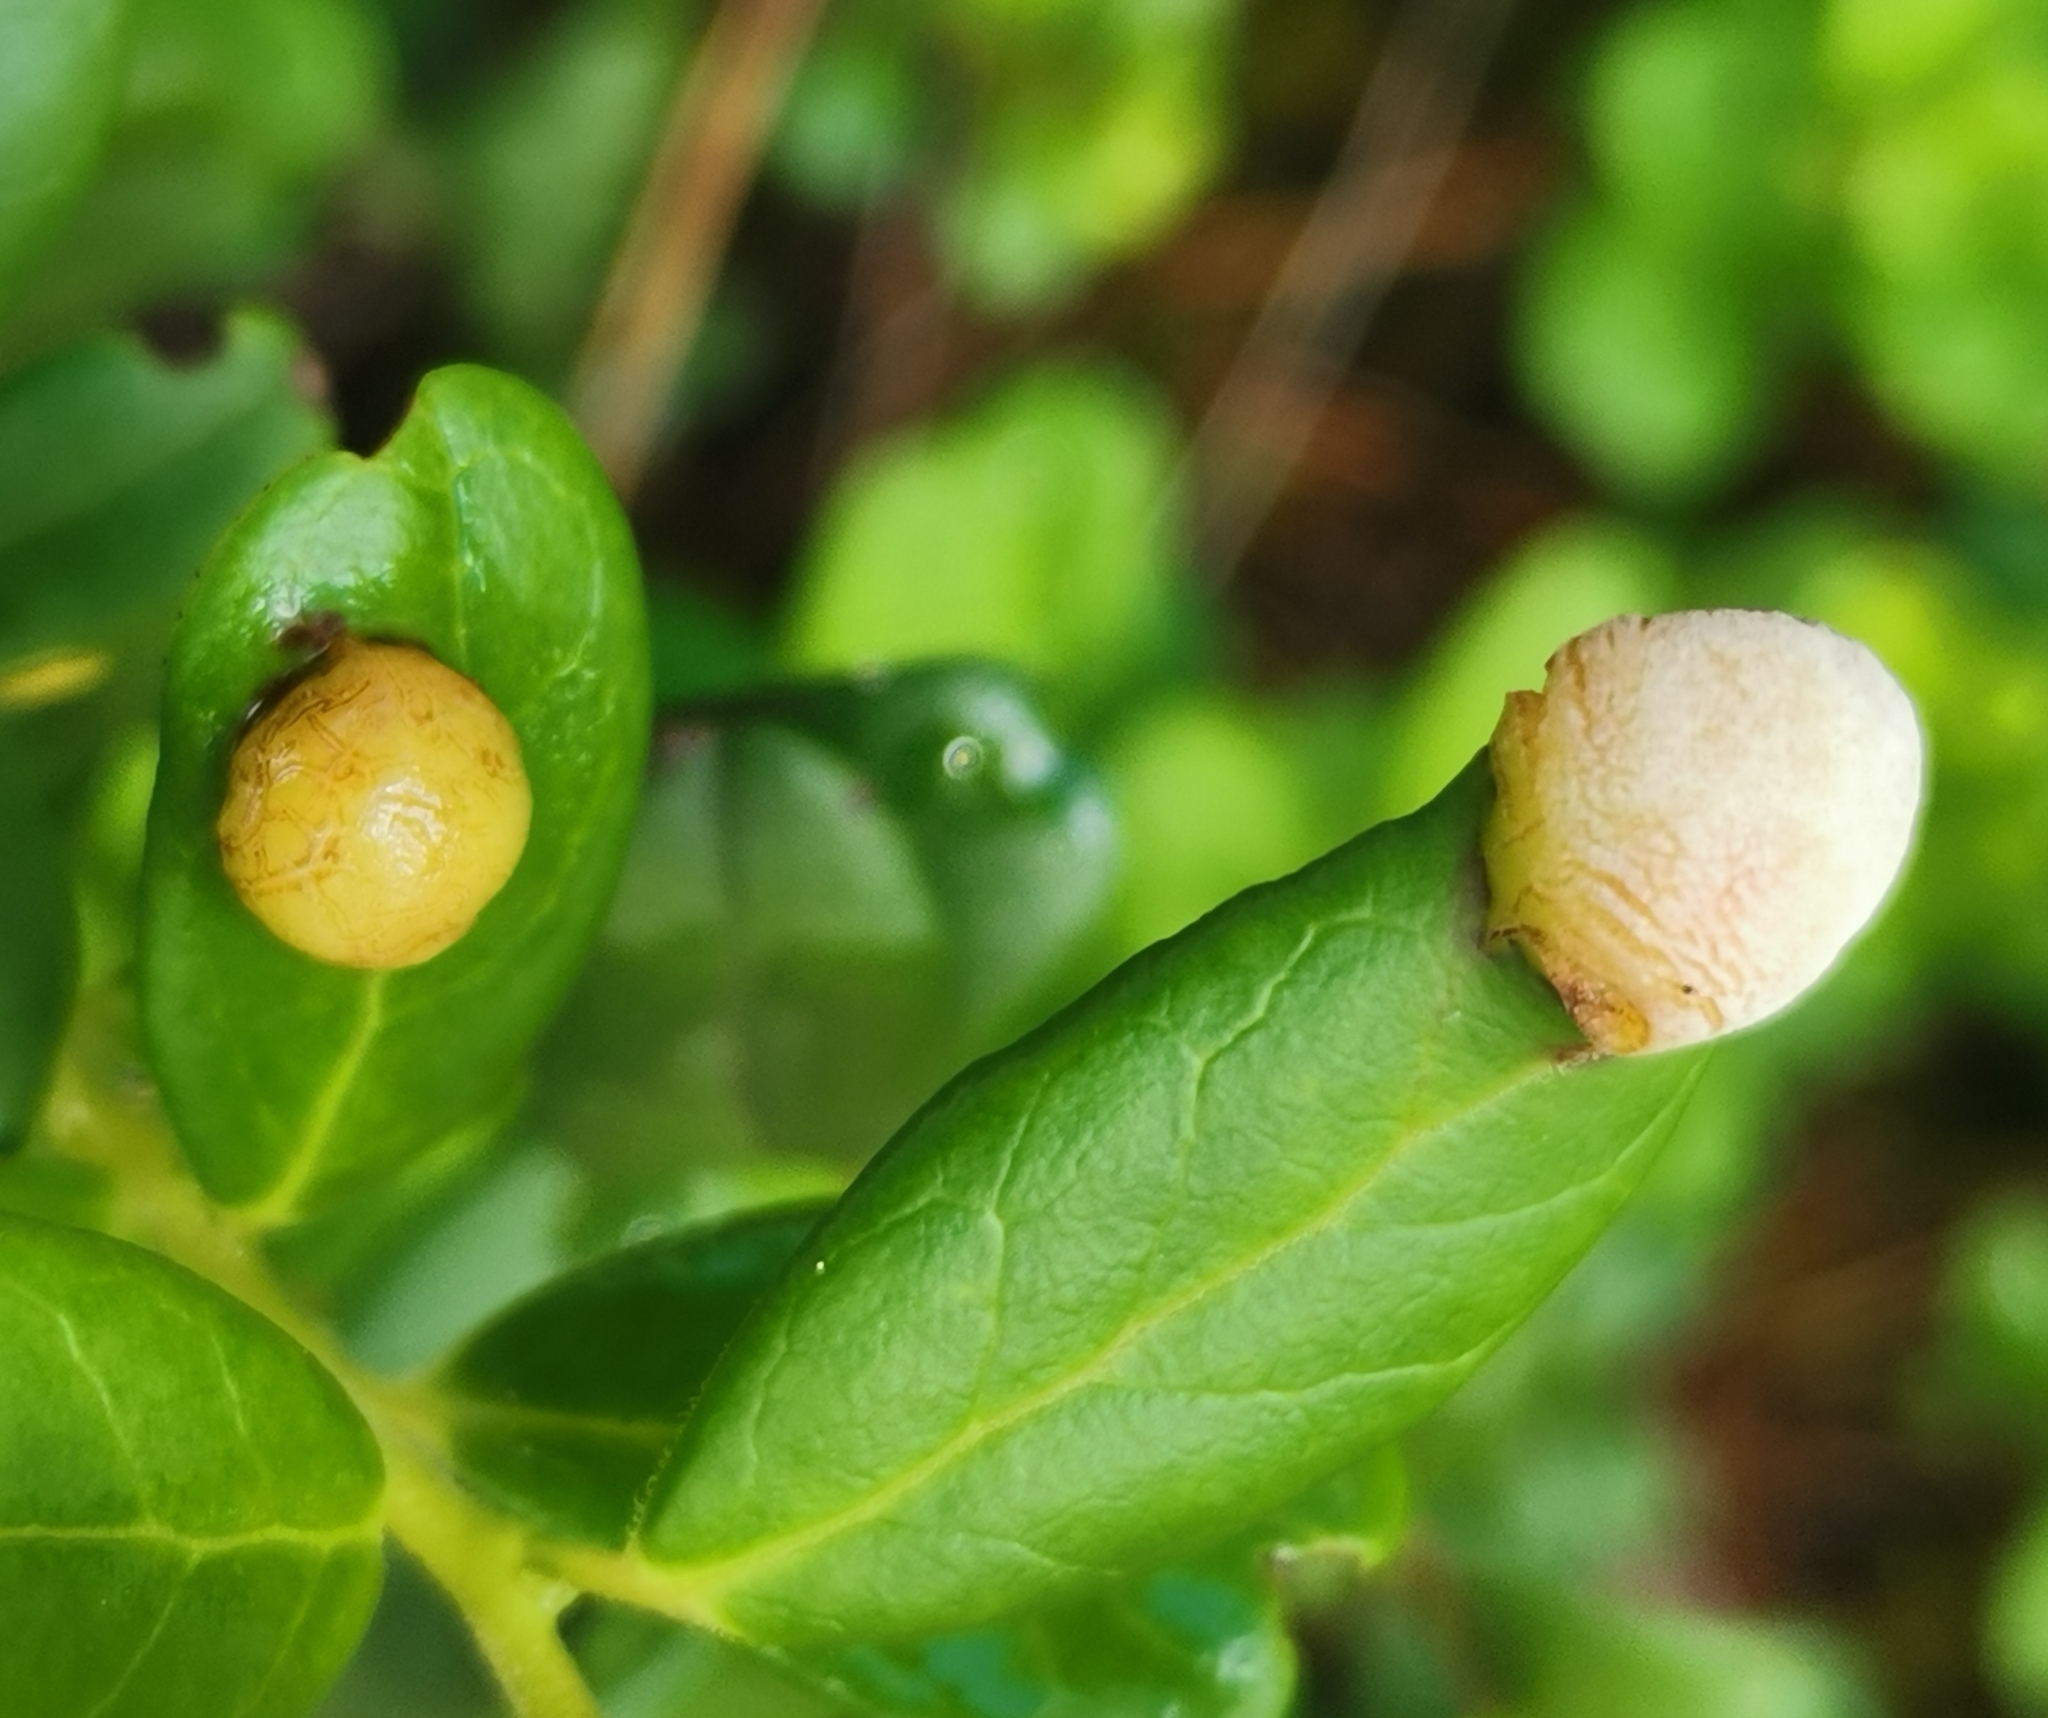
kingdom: Fungi
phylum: Basidiomycota
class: Exobasidiomycetes
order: Exobasidiales
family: Exobasidiaceae
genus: Exobasidium
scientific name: Exobasidium vaccinii
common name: Cowberry redleaf
